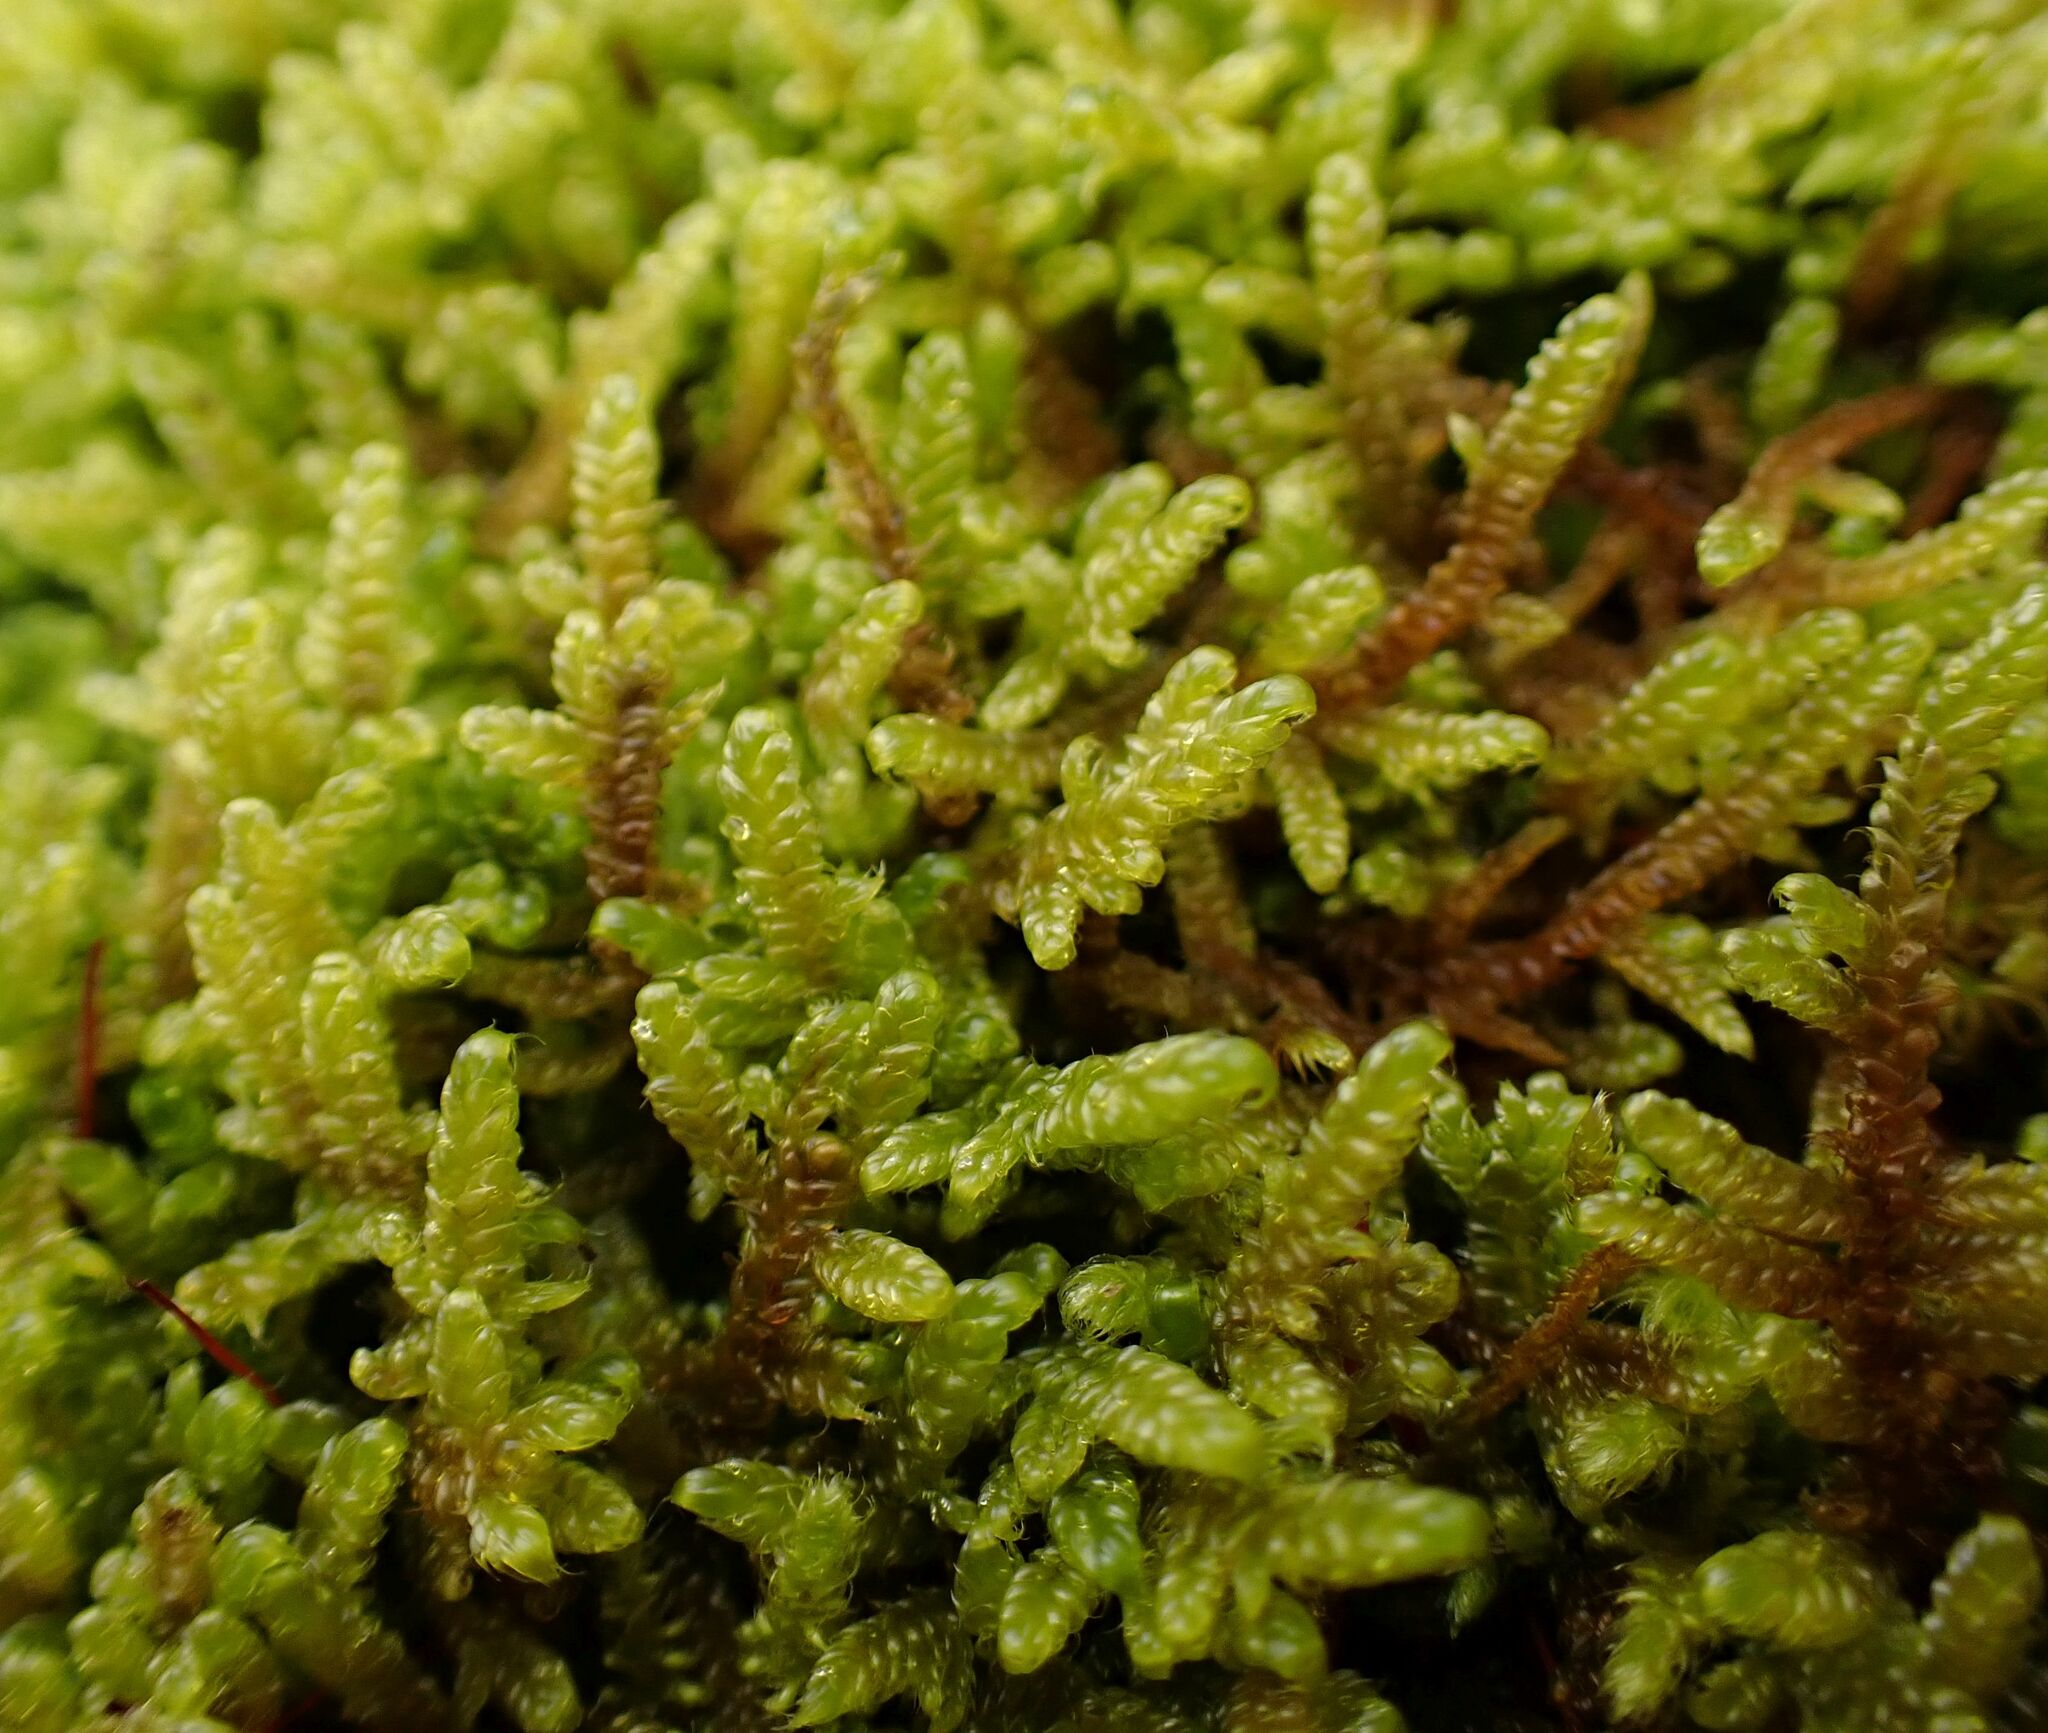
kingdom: Plantae
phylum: Bryophyta
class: Bryopsida
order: Hypnales
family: Hypnaceae
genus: Hypnum
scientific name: Hypnum cupressiforme
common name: Cypress-leaved plait-moss
